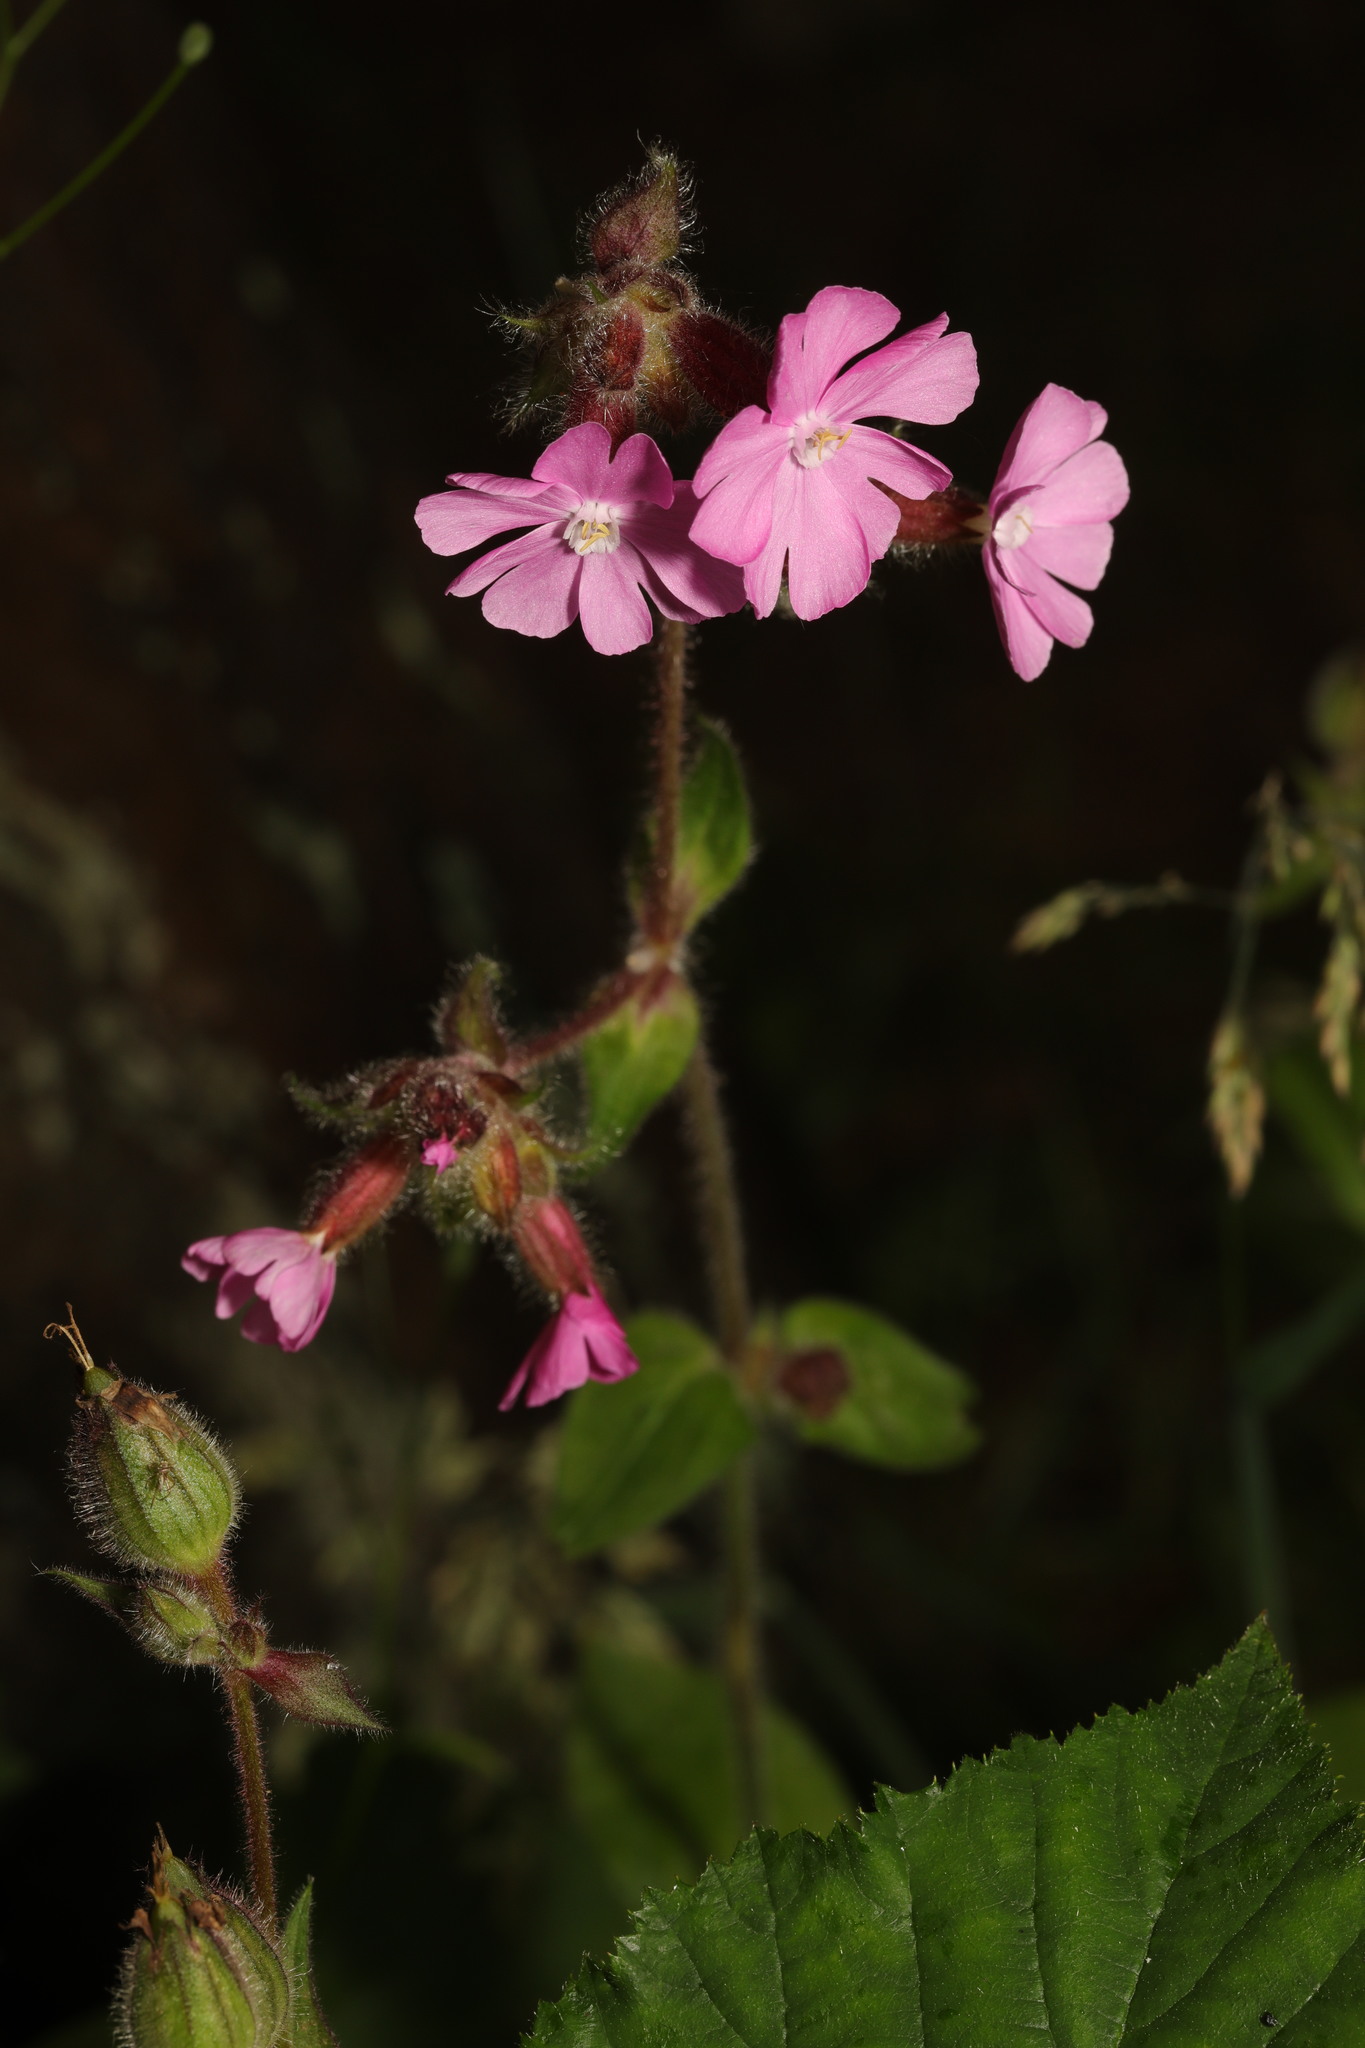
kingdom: Plantae
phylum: Tracheophyta
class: Magnoliopsida
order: Caryophyllales
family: Caryophyllaceae
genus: Silene
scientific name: Silene dioica
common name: Red campion
